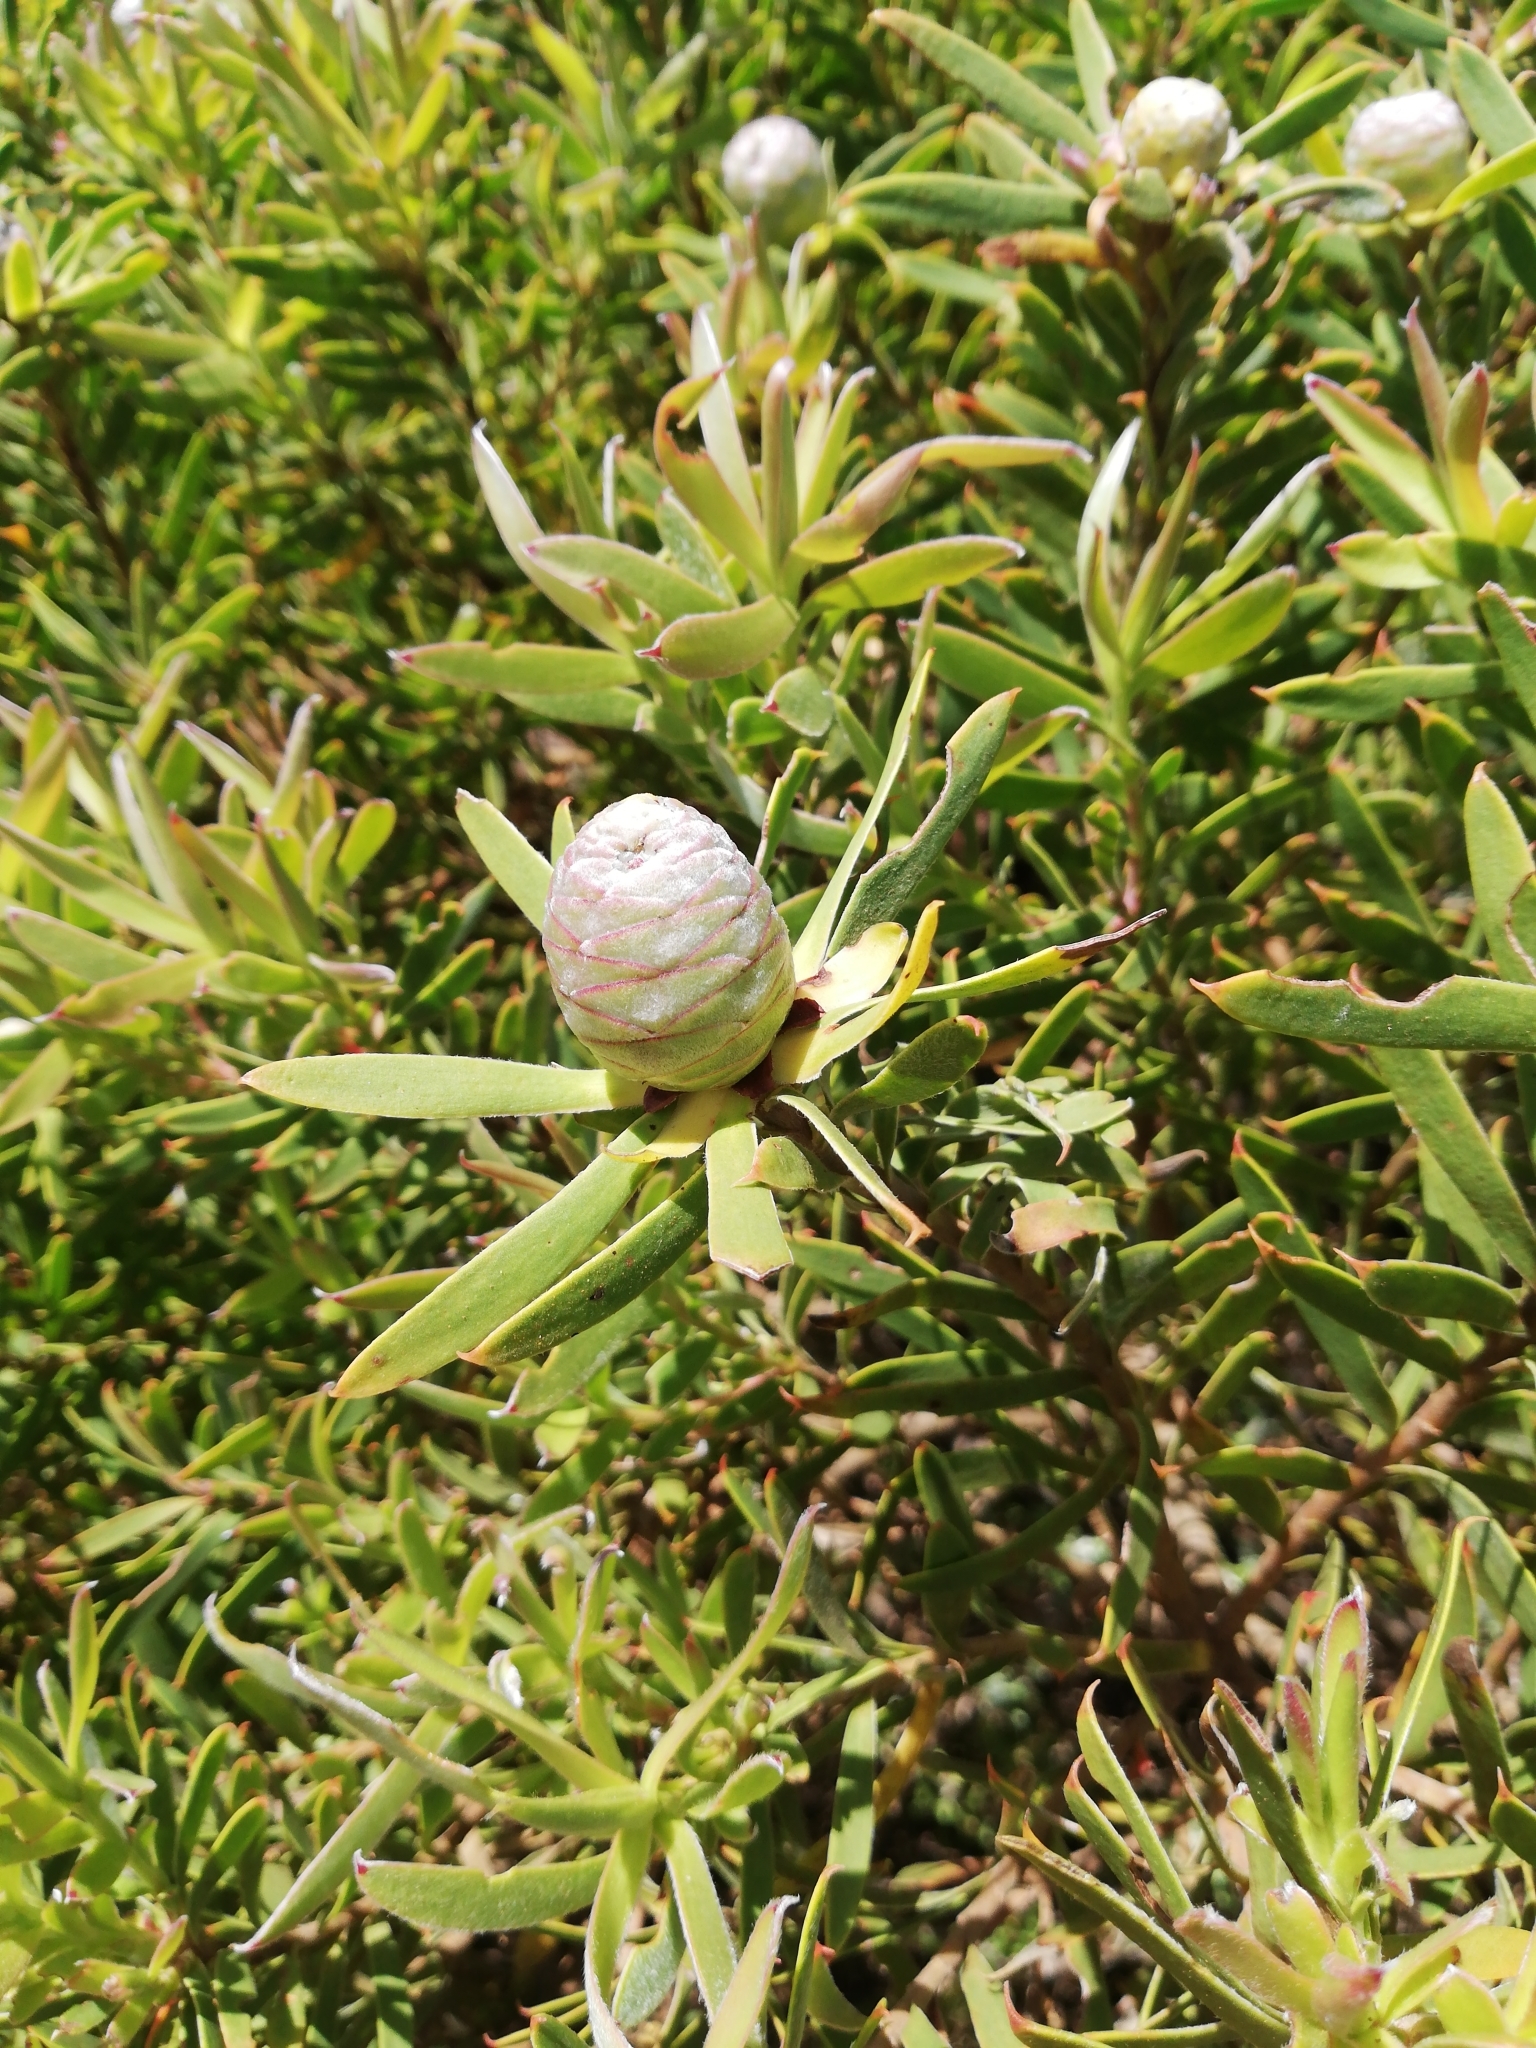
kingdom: Plantae
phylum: Tracheophyta
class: Magnoliopsida
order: Proteales
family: Proteaceae
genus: Leucadendron
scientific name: Leucadendron coniferum
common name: Dune conebush
